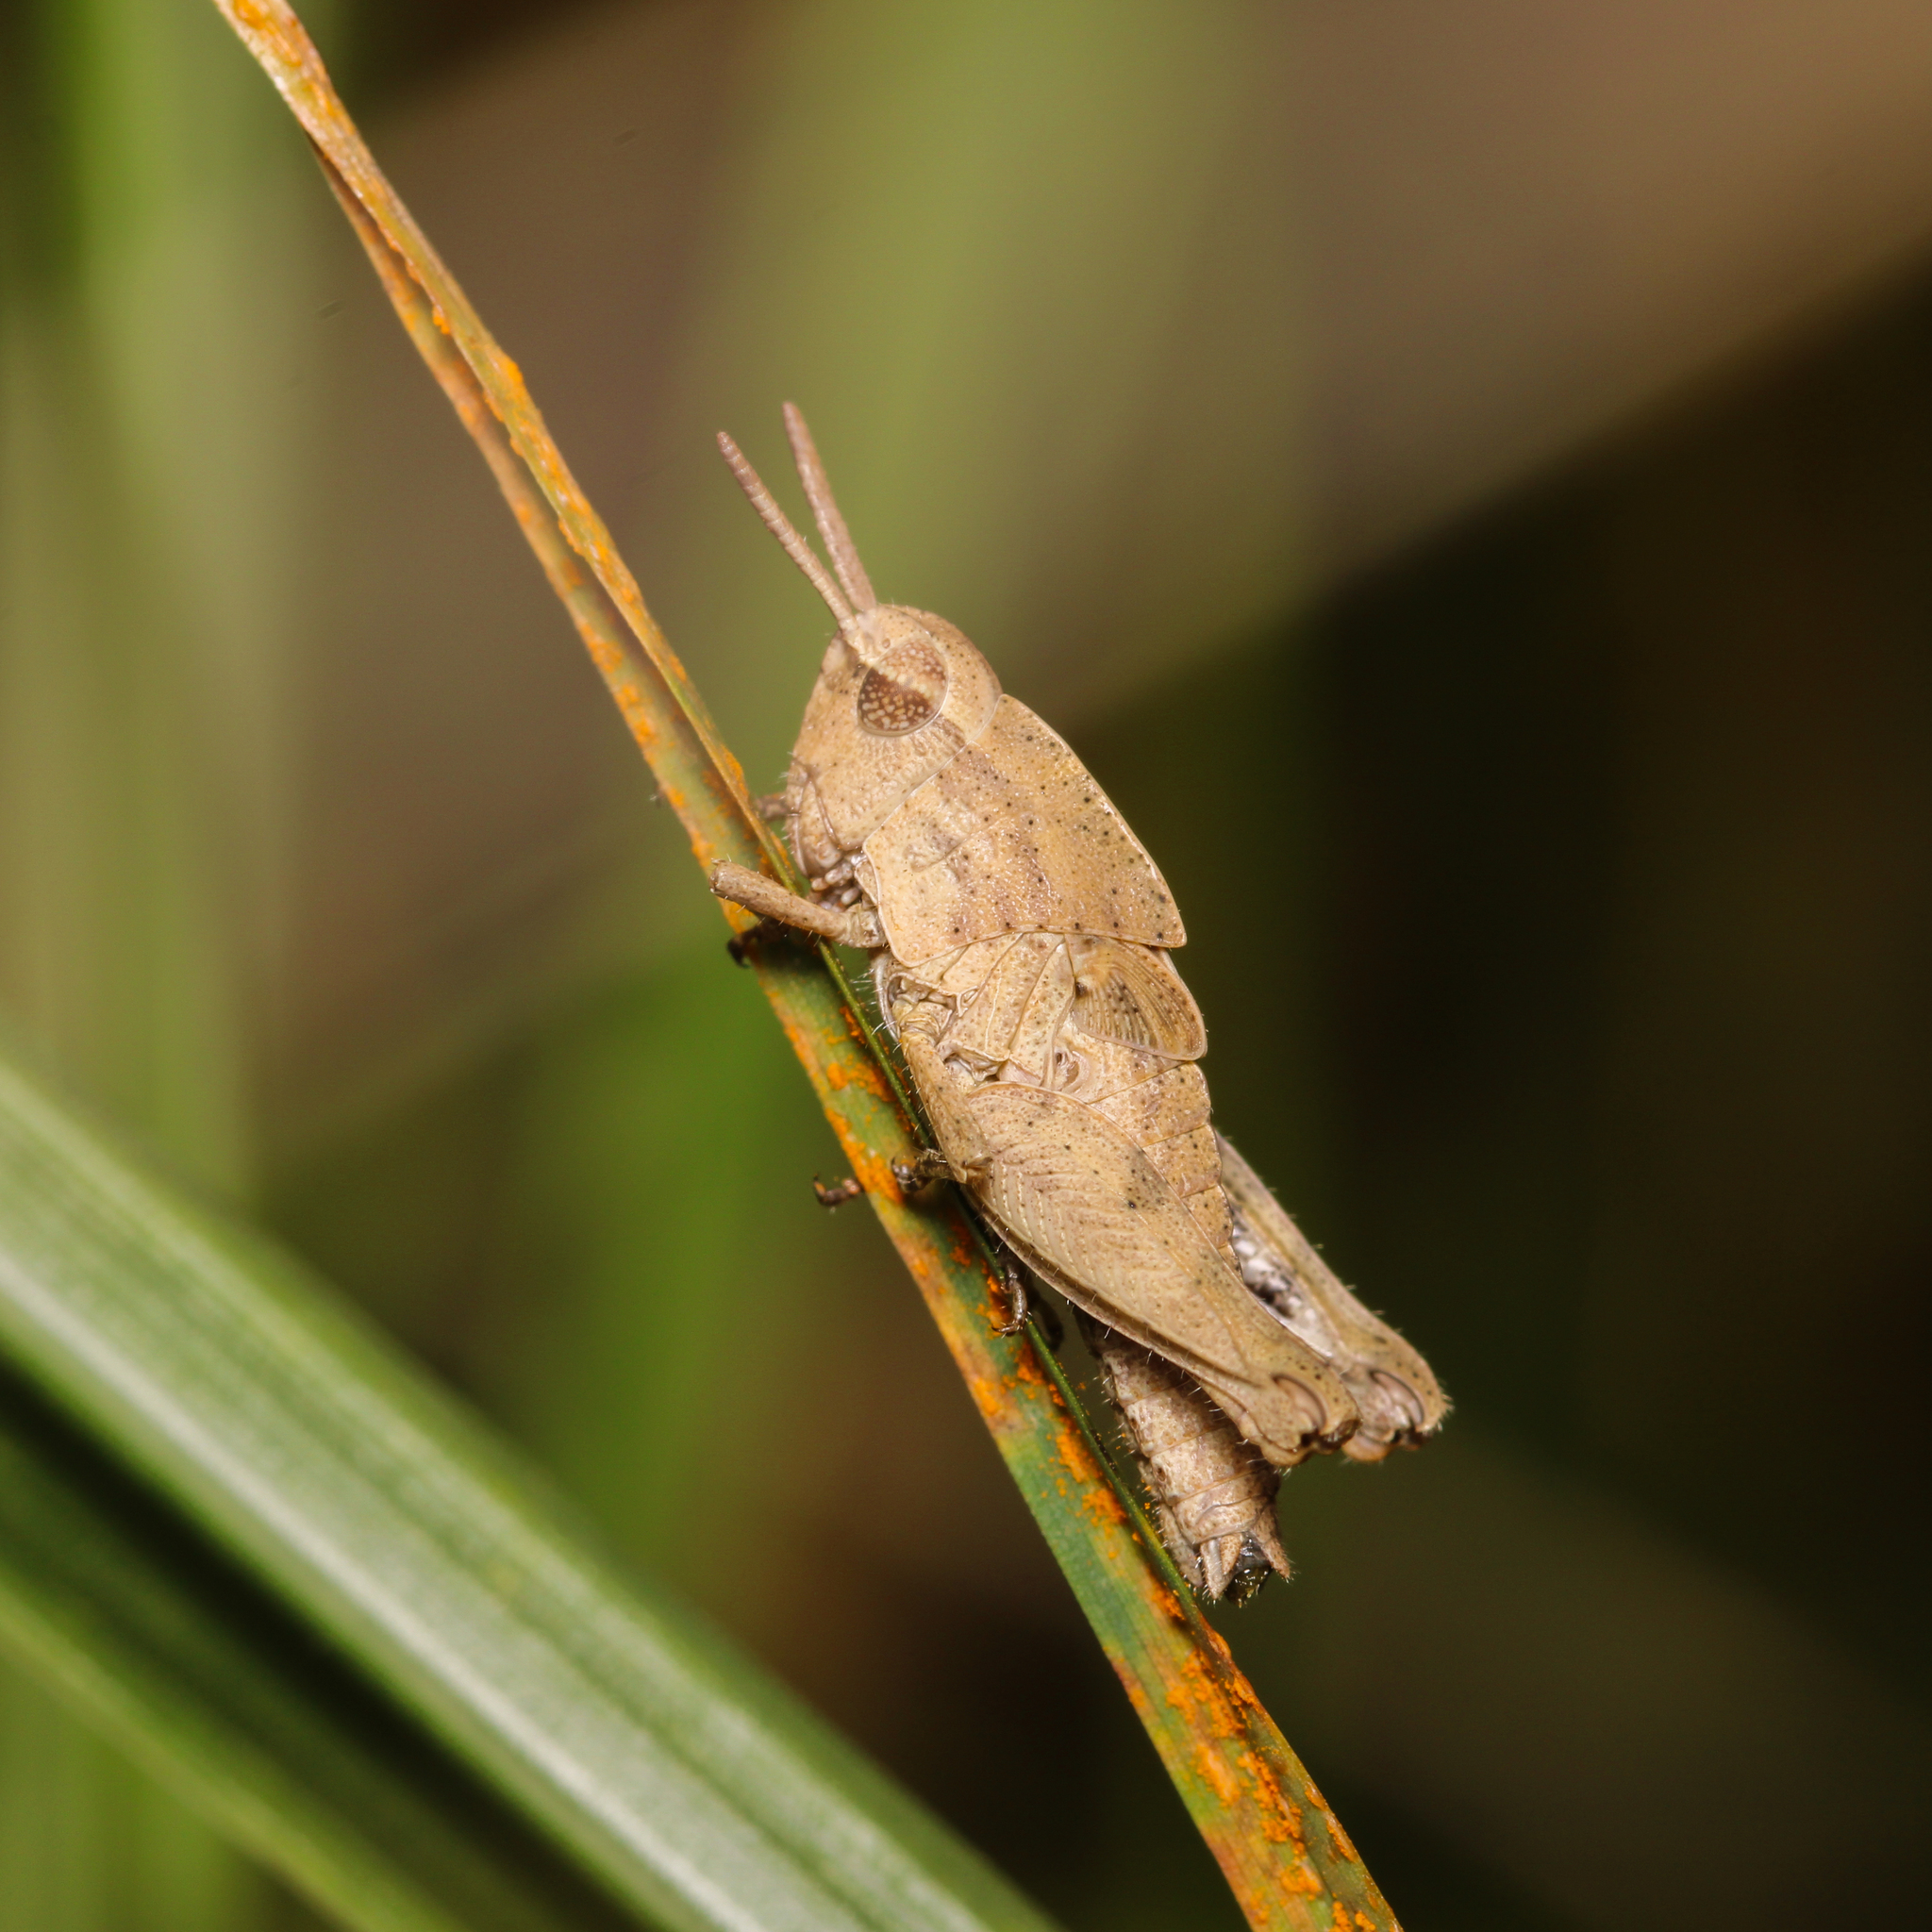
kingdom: Animalia
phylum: Arthropoda
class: Insecta
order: Orthoptera
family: Acrididae
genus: Chortophaga
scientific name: Chortophaga viridifasciata
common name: Green-striped grasshopper
